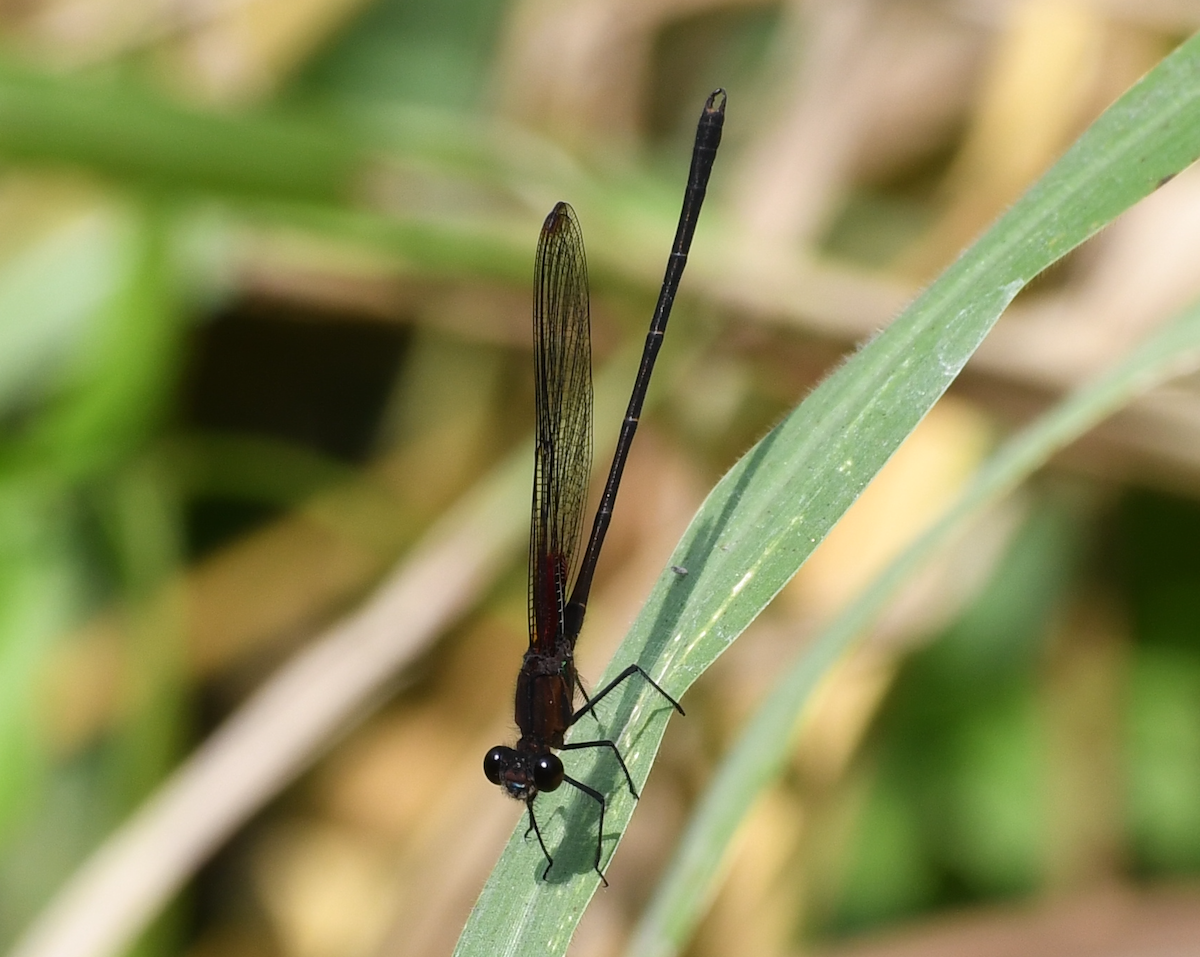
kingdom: Animalia
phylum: Arthropoda
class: Insecta
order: Odonata
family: Calopterygidae
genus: Hetaerina
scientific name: Hetaerina cruentata
